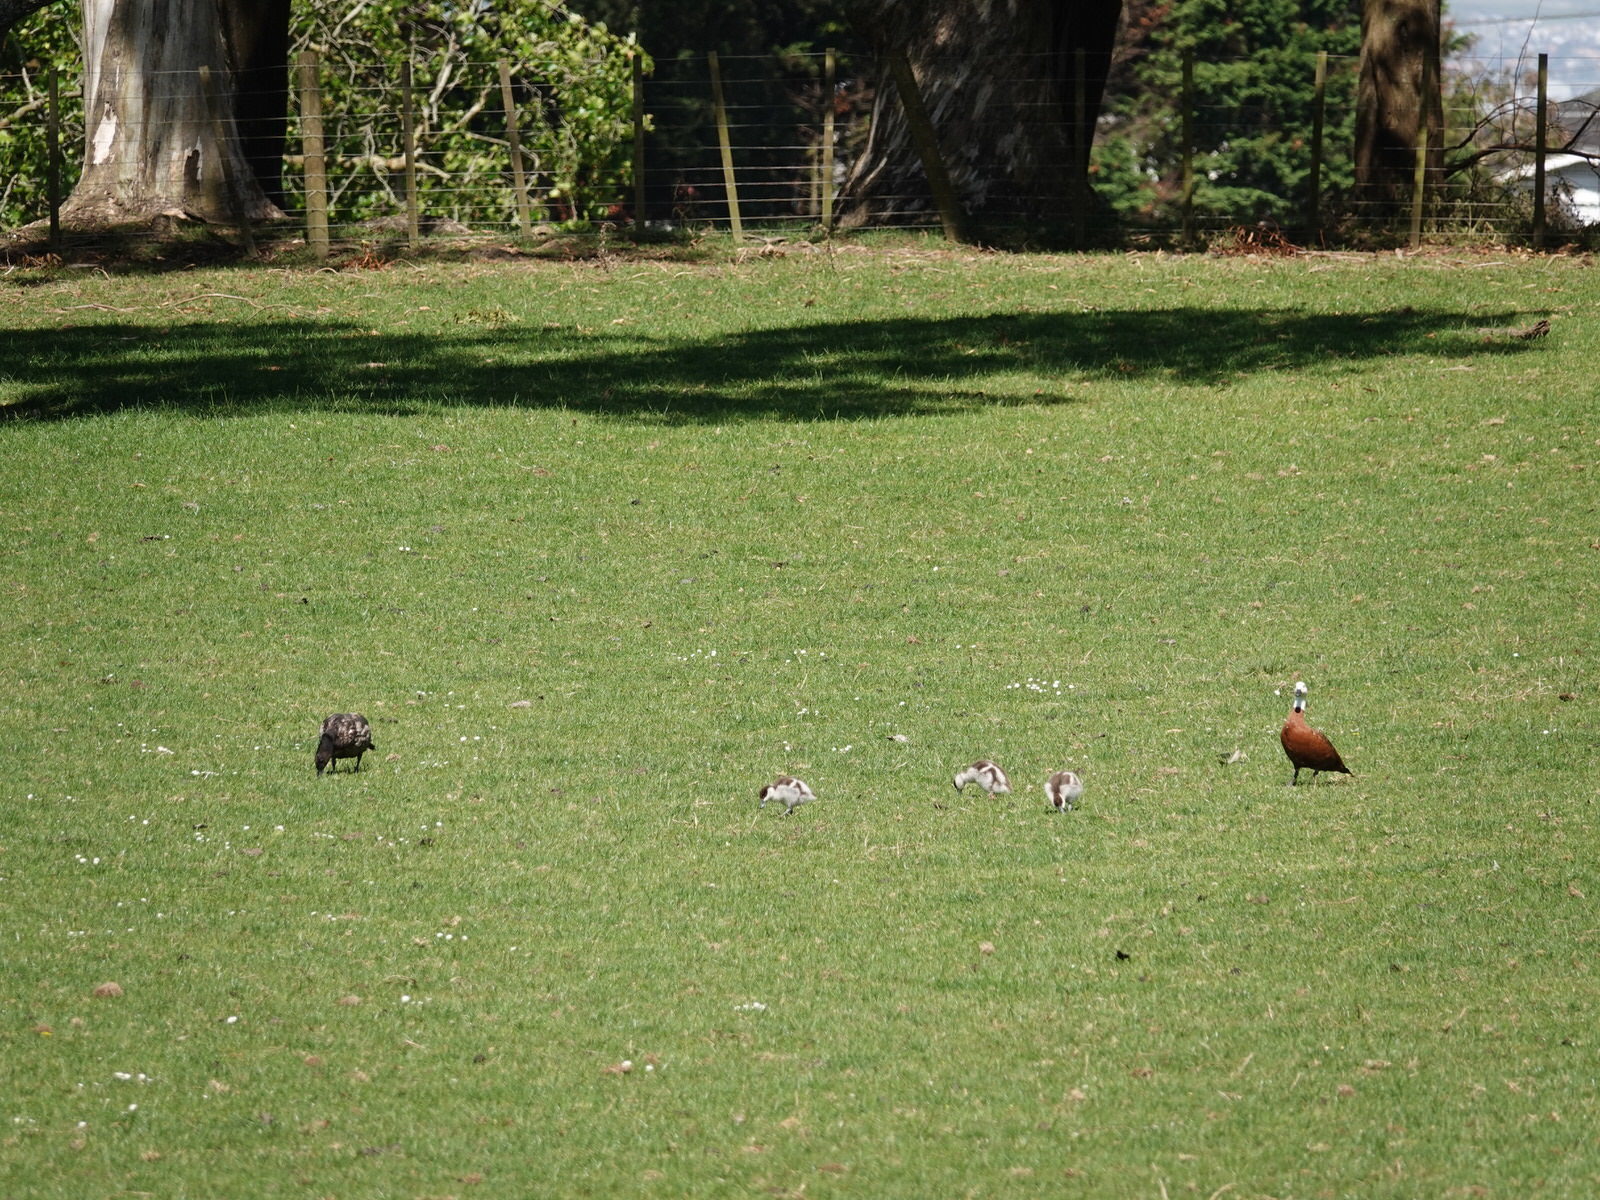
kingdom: Animalia
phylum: Chordata
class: Aves
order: Anseriformes
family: Anatidae
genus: Tadorna
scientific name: Tadorna variegata
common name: Paradise shelduck
